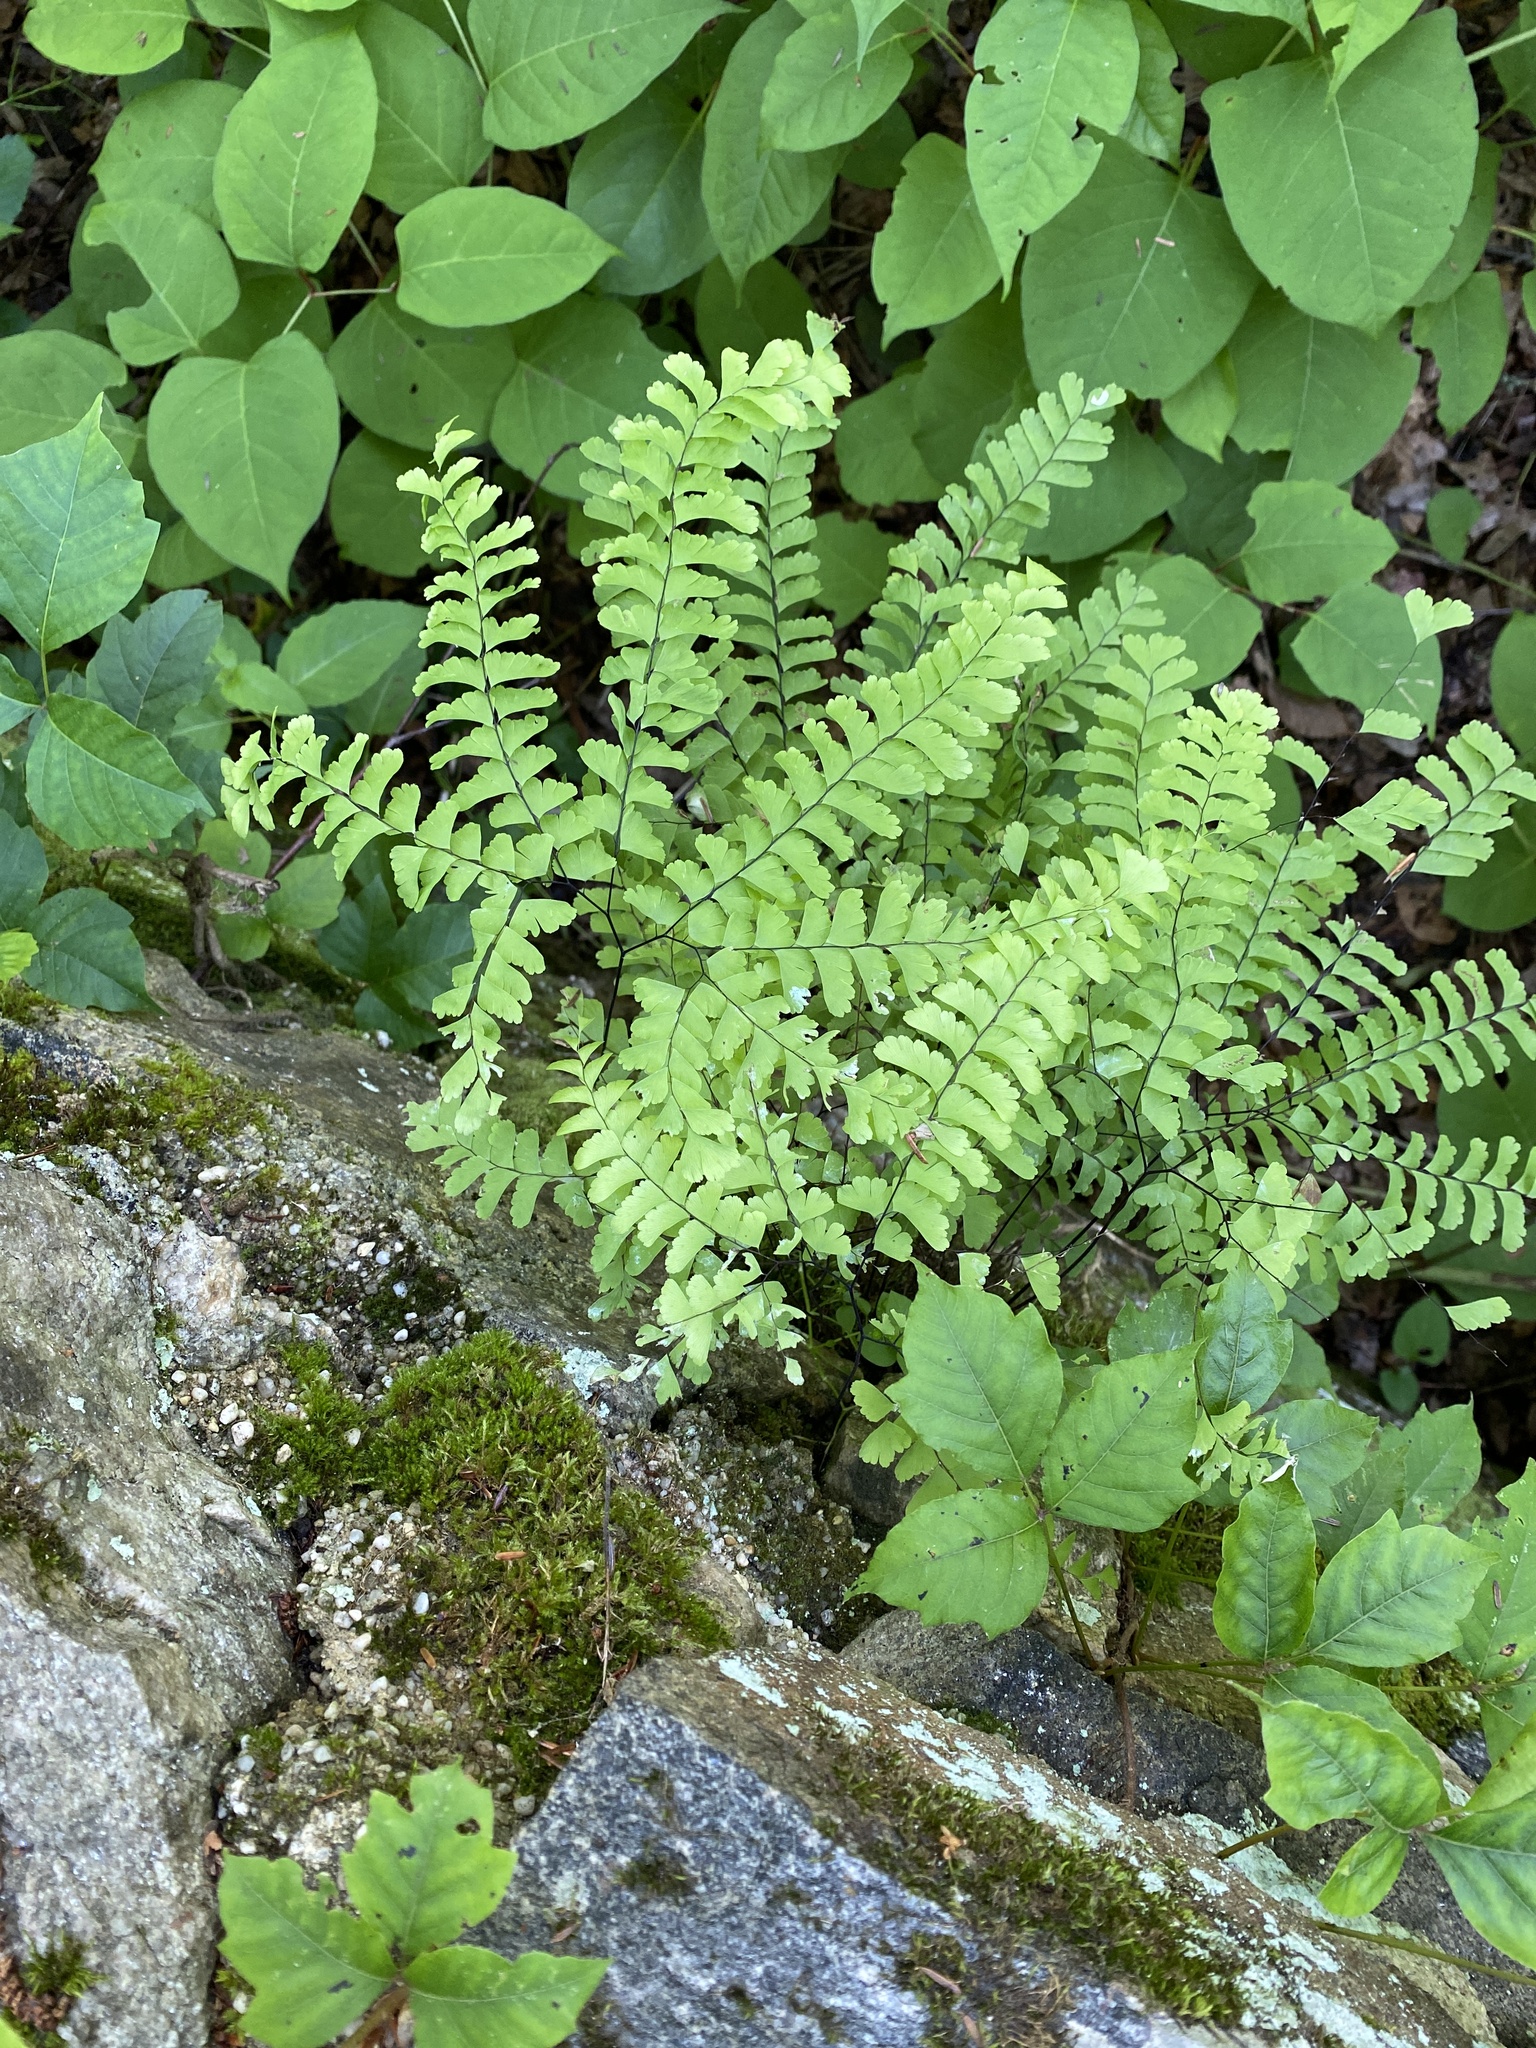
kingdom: Plantae
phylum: Tracheophyta
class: Polypodiopsida
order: Polypodiales
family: Pteridaceae
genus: Adiantum
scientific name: Adiantum pedatum
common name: Five-finger fern
